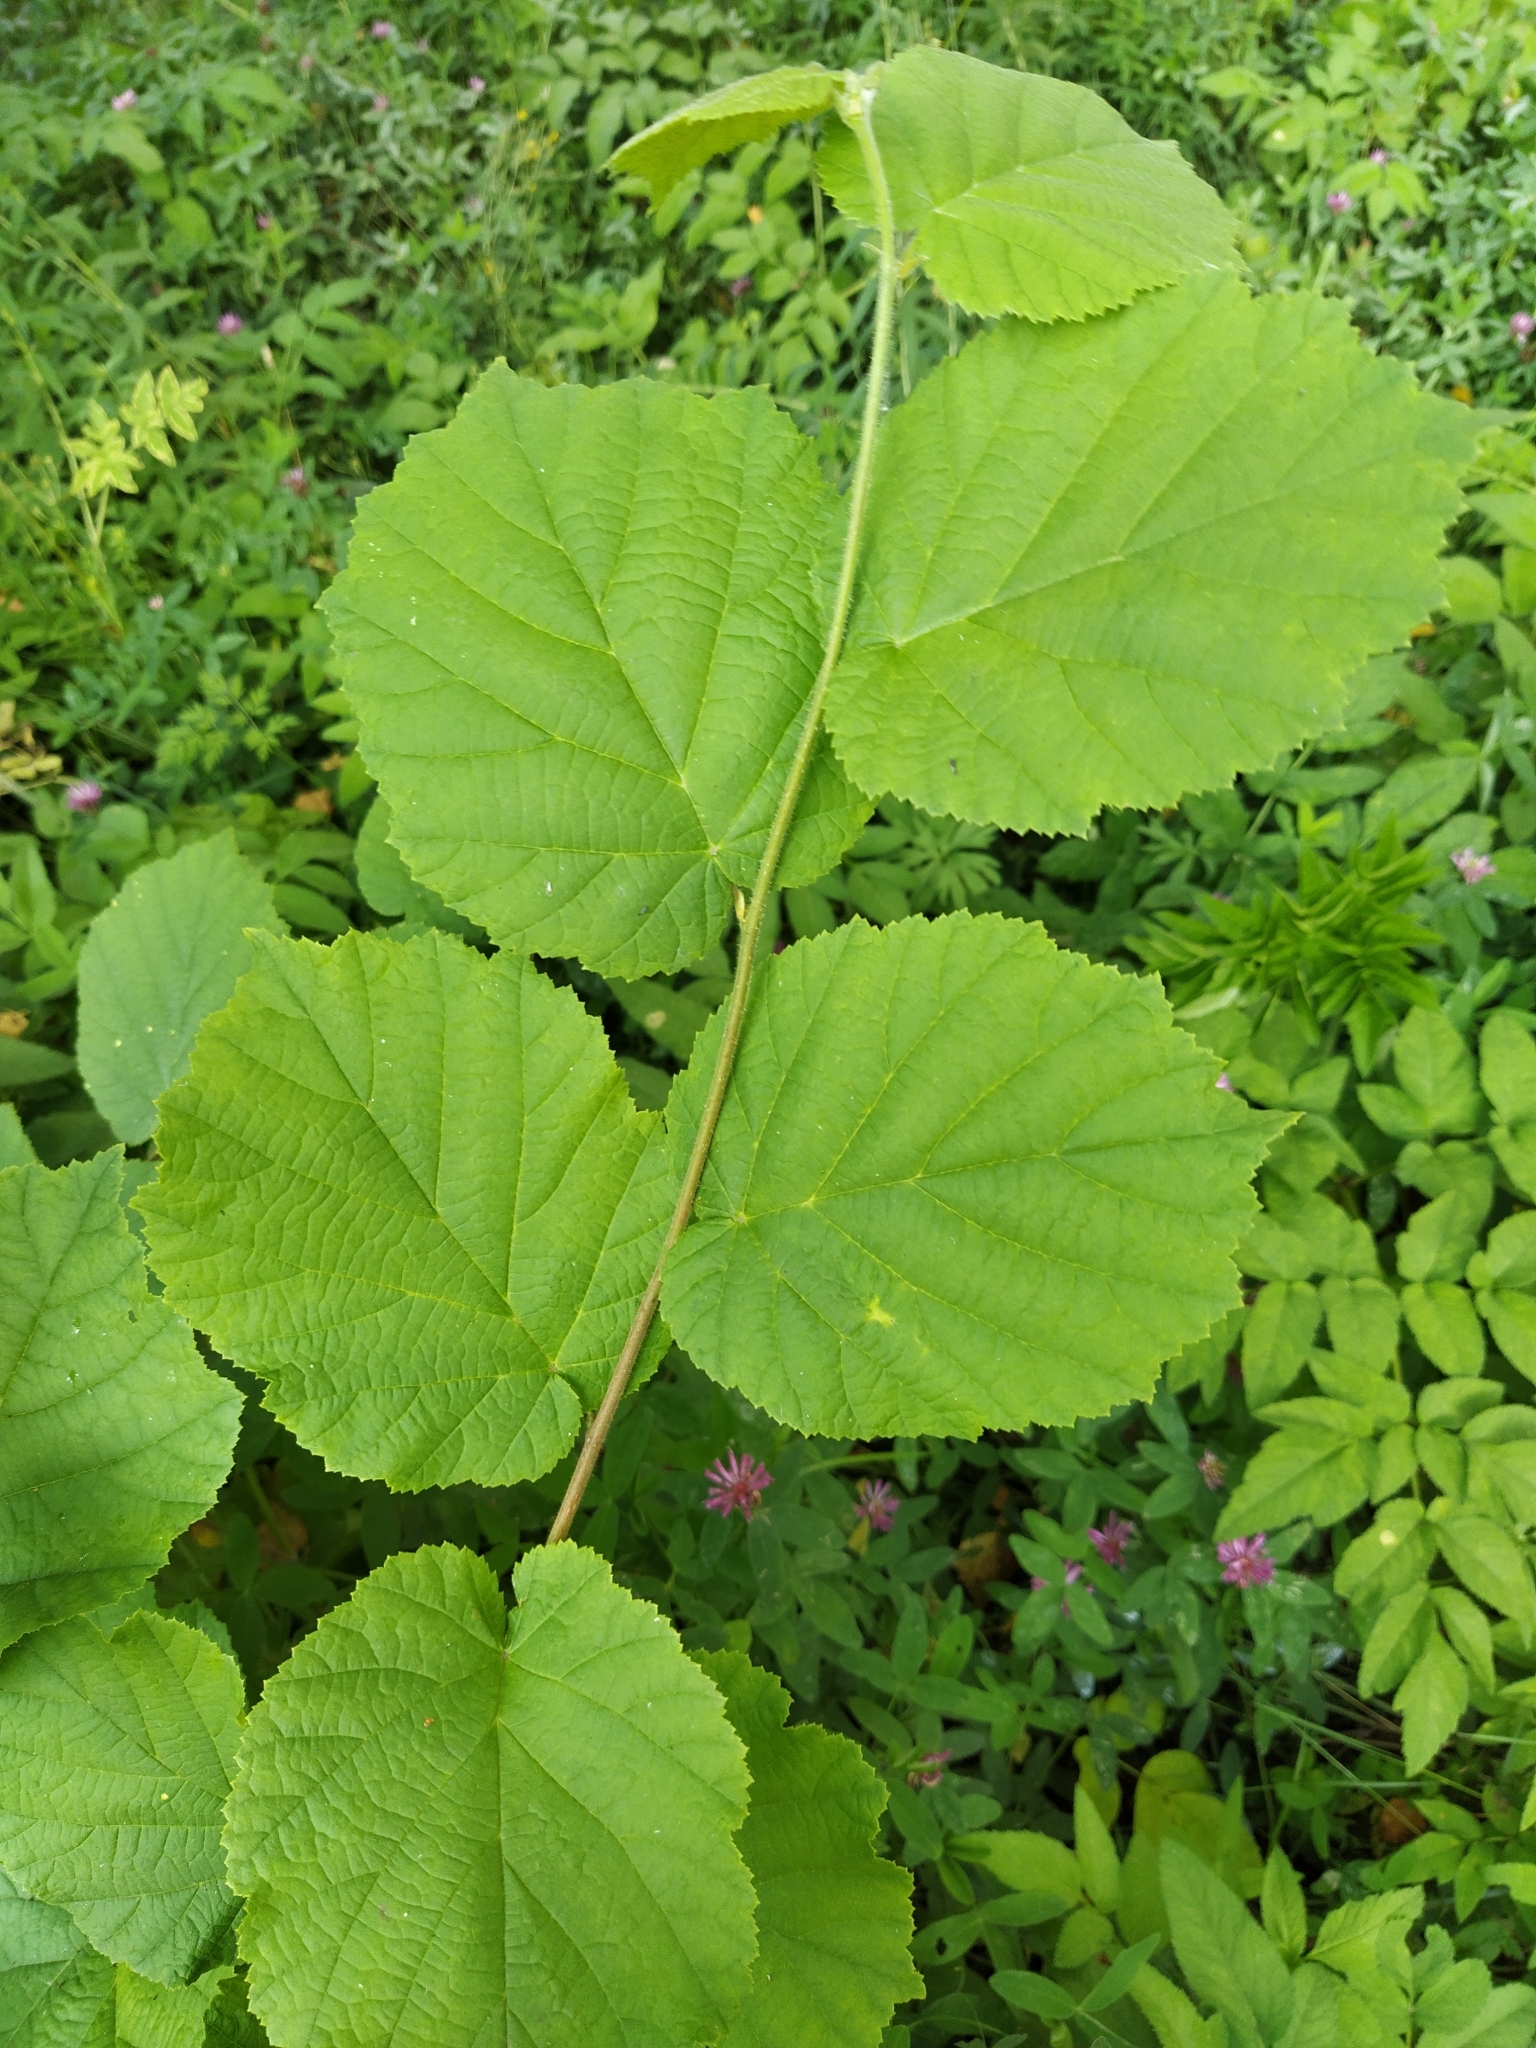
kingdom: Plantae
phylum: Tracheophyta
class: Magnoliopsida
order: Fagales
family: Betulaceae
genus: Corylus
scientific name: Corylus avellana
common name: European hazel
